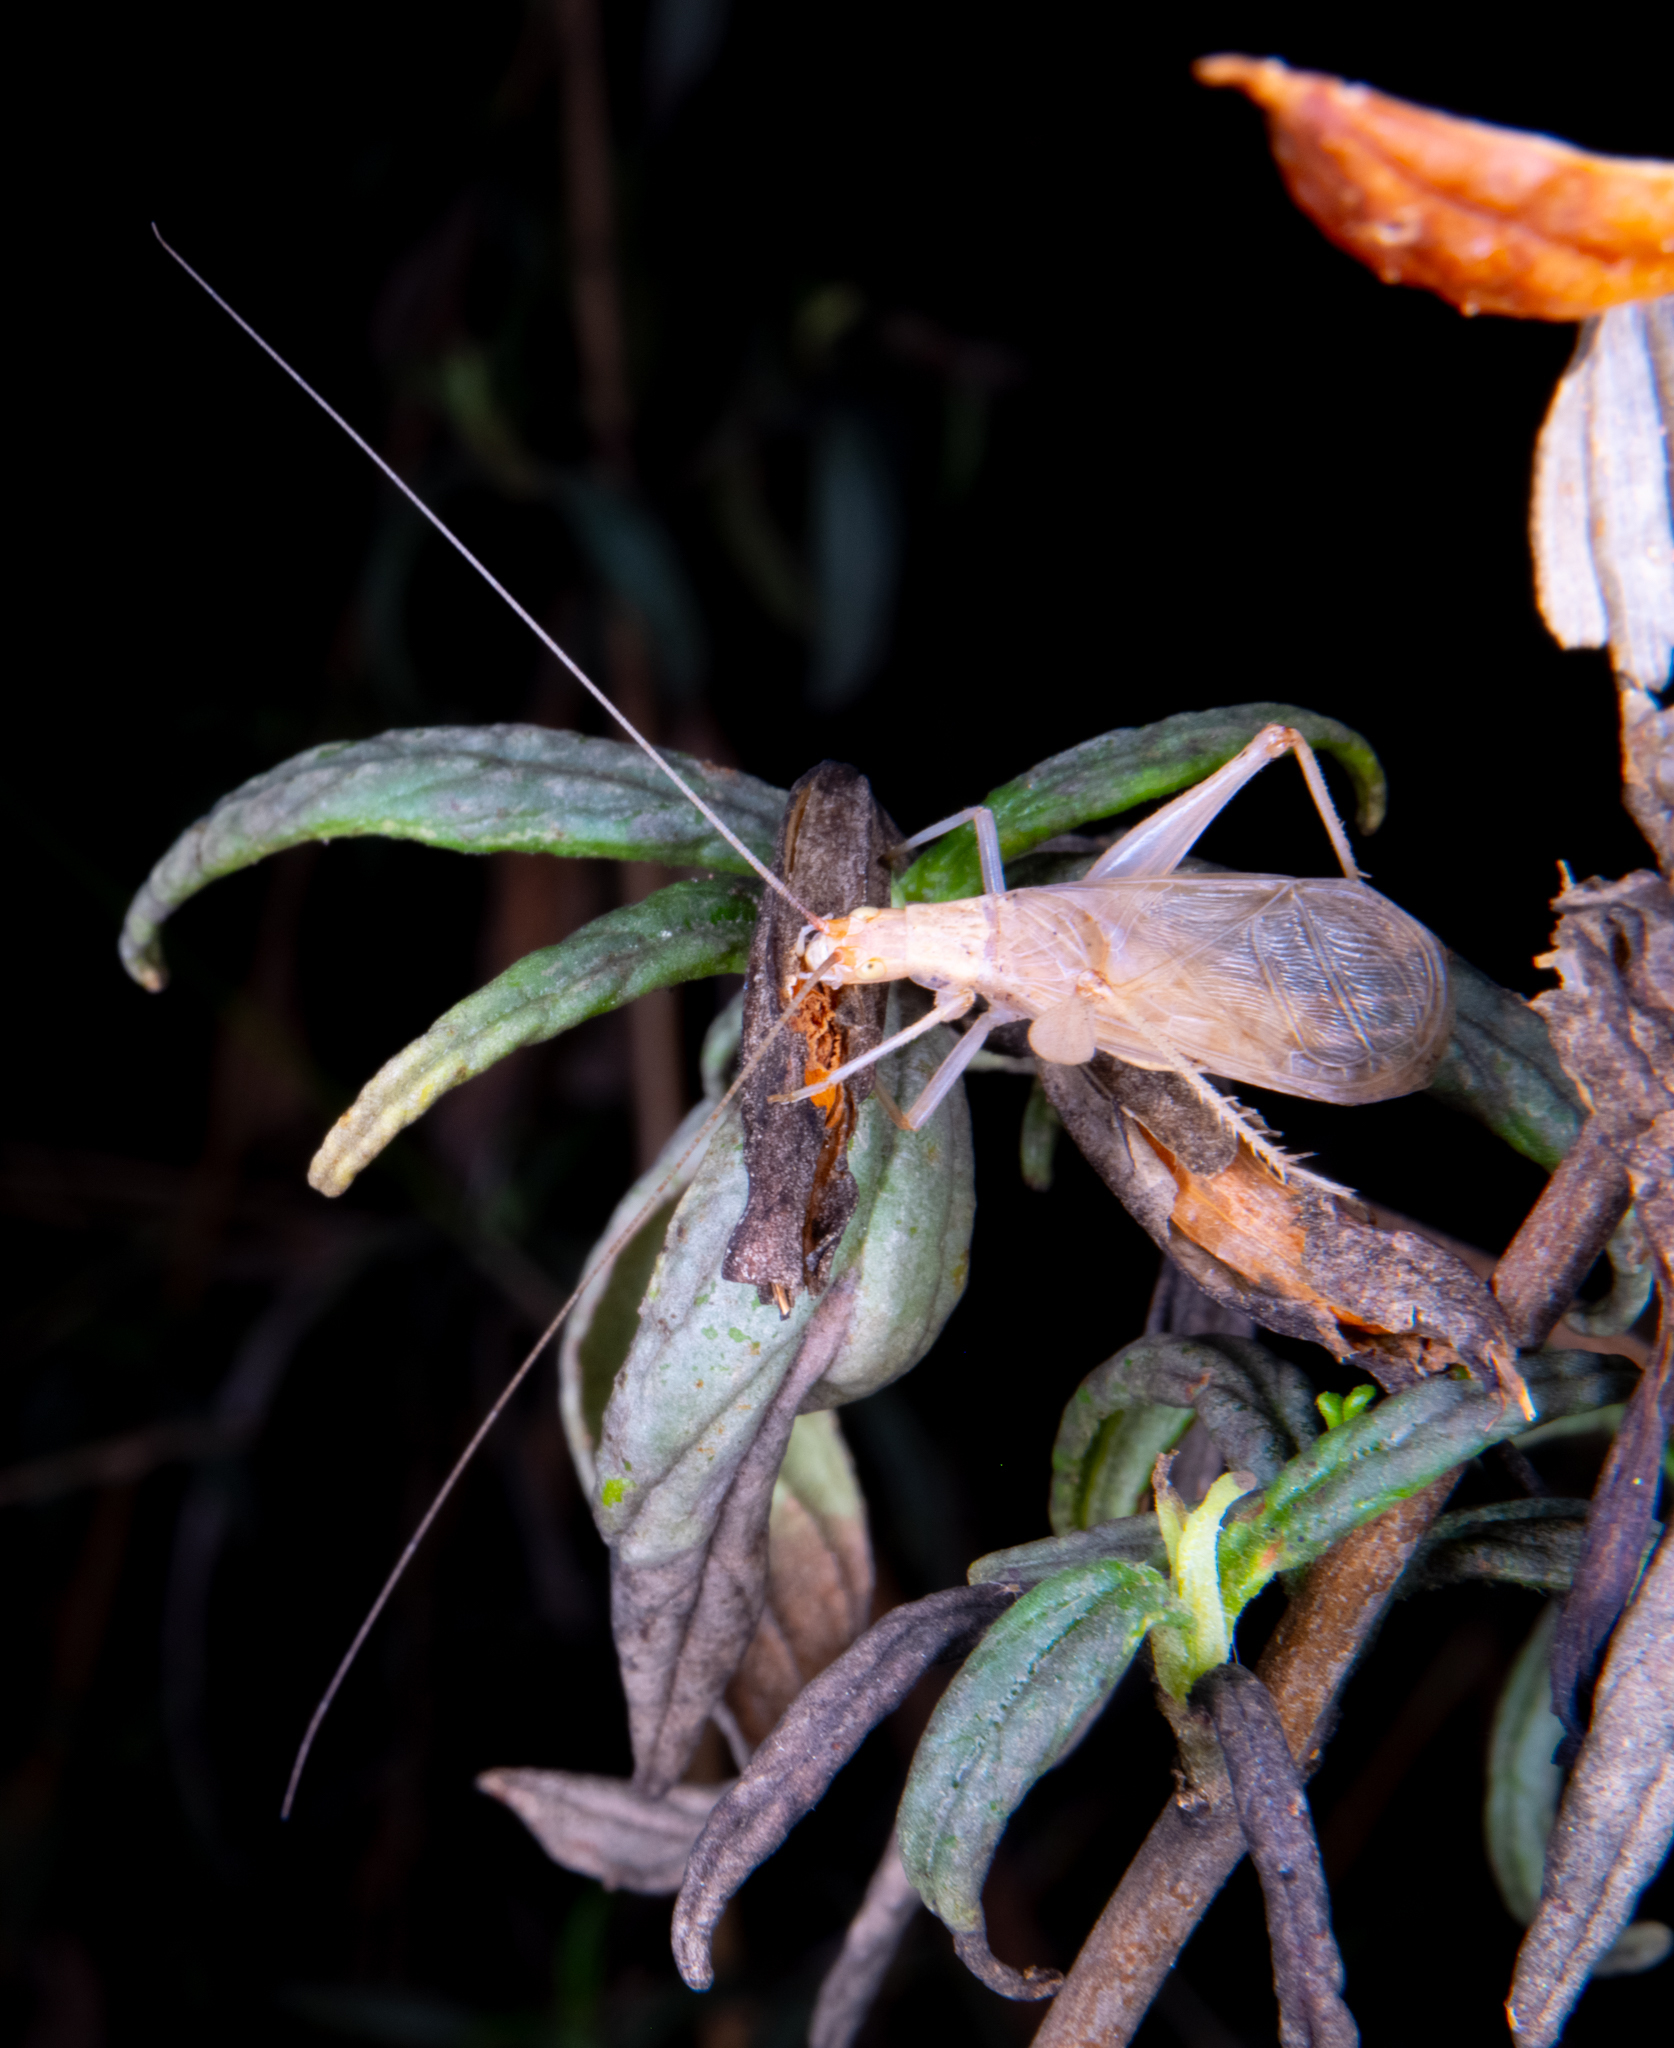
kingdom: Animalia
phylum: Arthropoda
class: Insecta
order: Orthoptera
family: Gryllidae
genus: Oecanthus
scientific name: Oecanthus californicus
